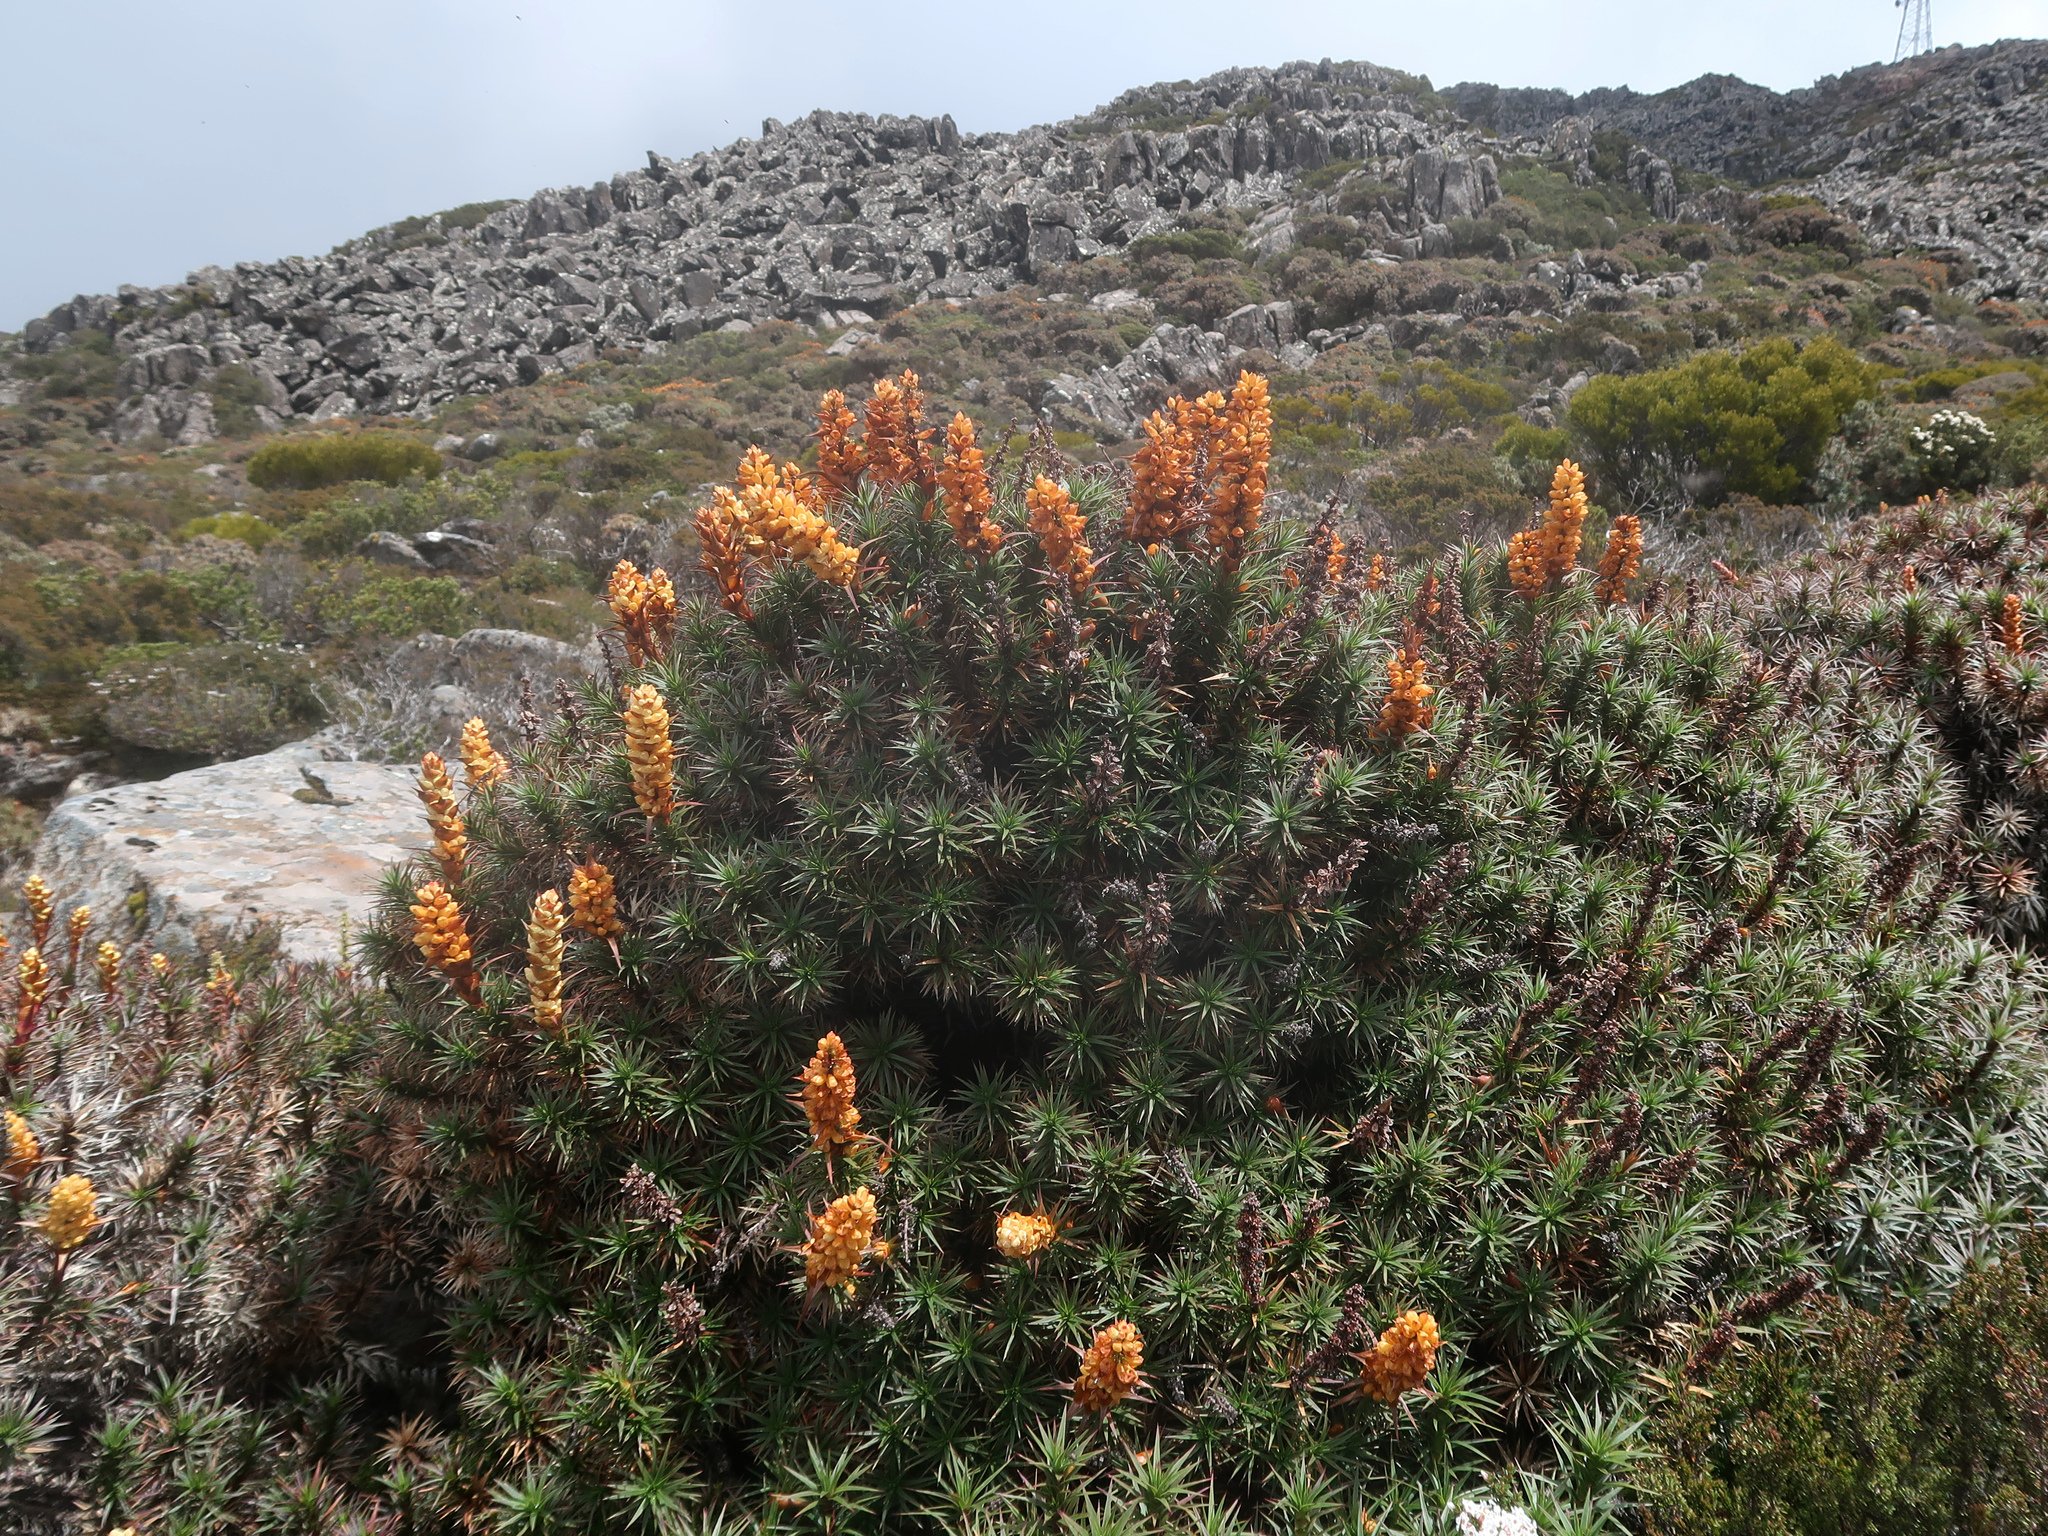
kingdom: Plantae
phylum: Tracheophyta
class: Magnoliopsida
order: Ericales
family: Ericaceae
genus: Dracophyllum
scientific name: Dracophyllum persistentifolium
